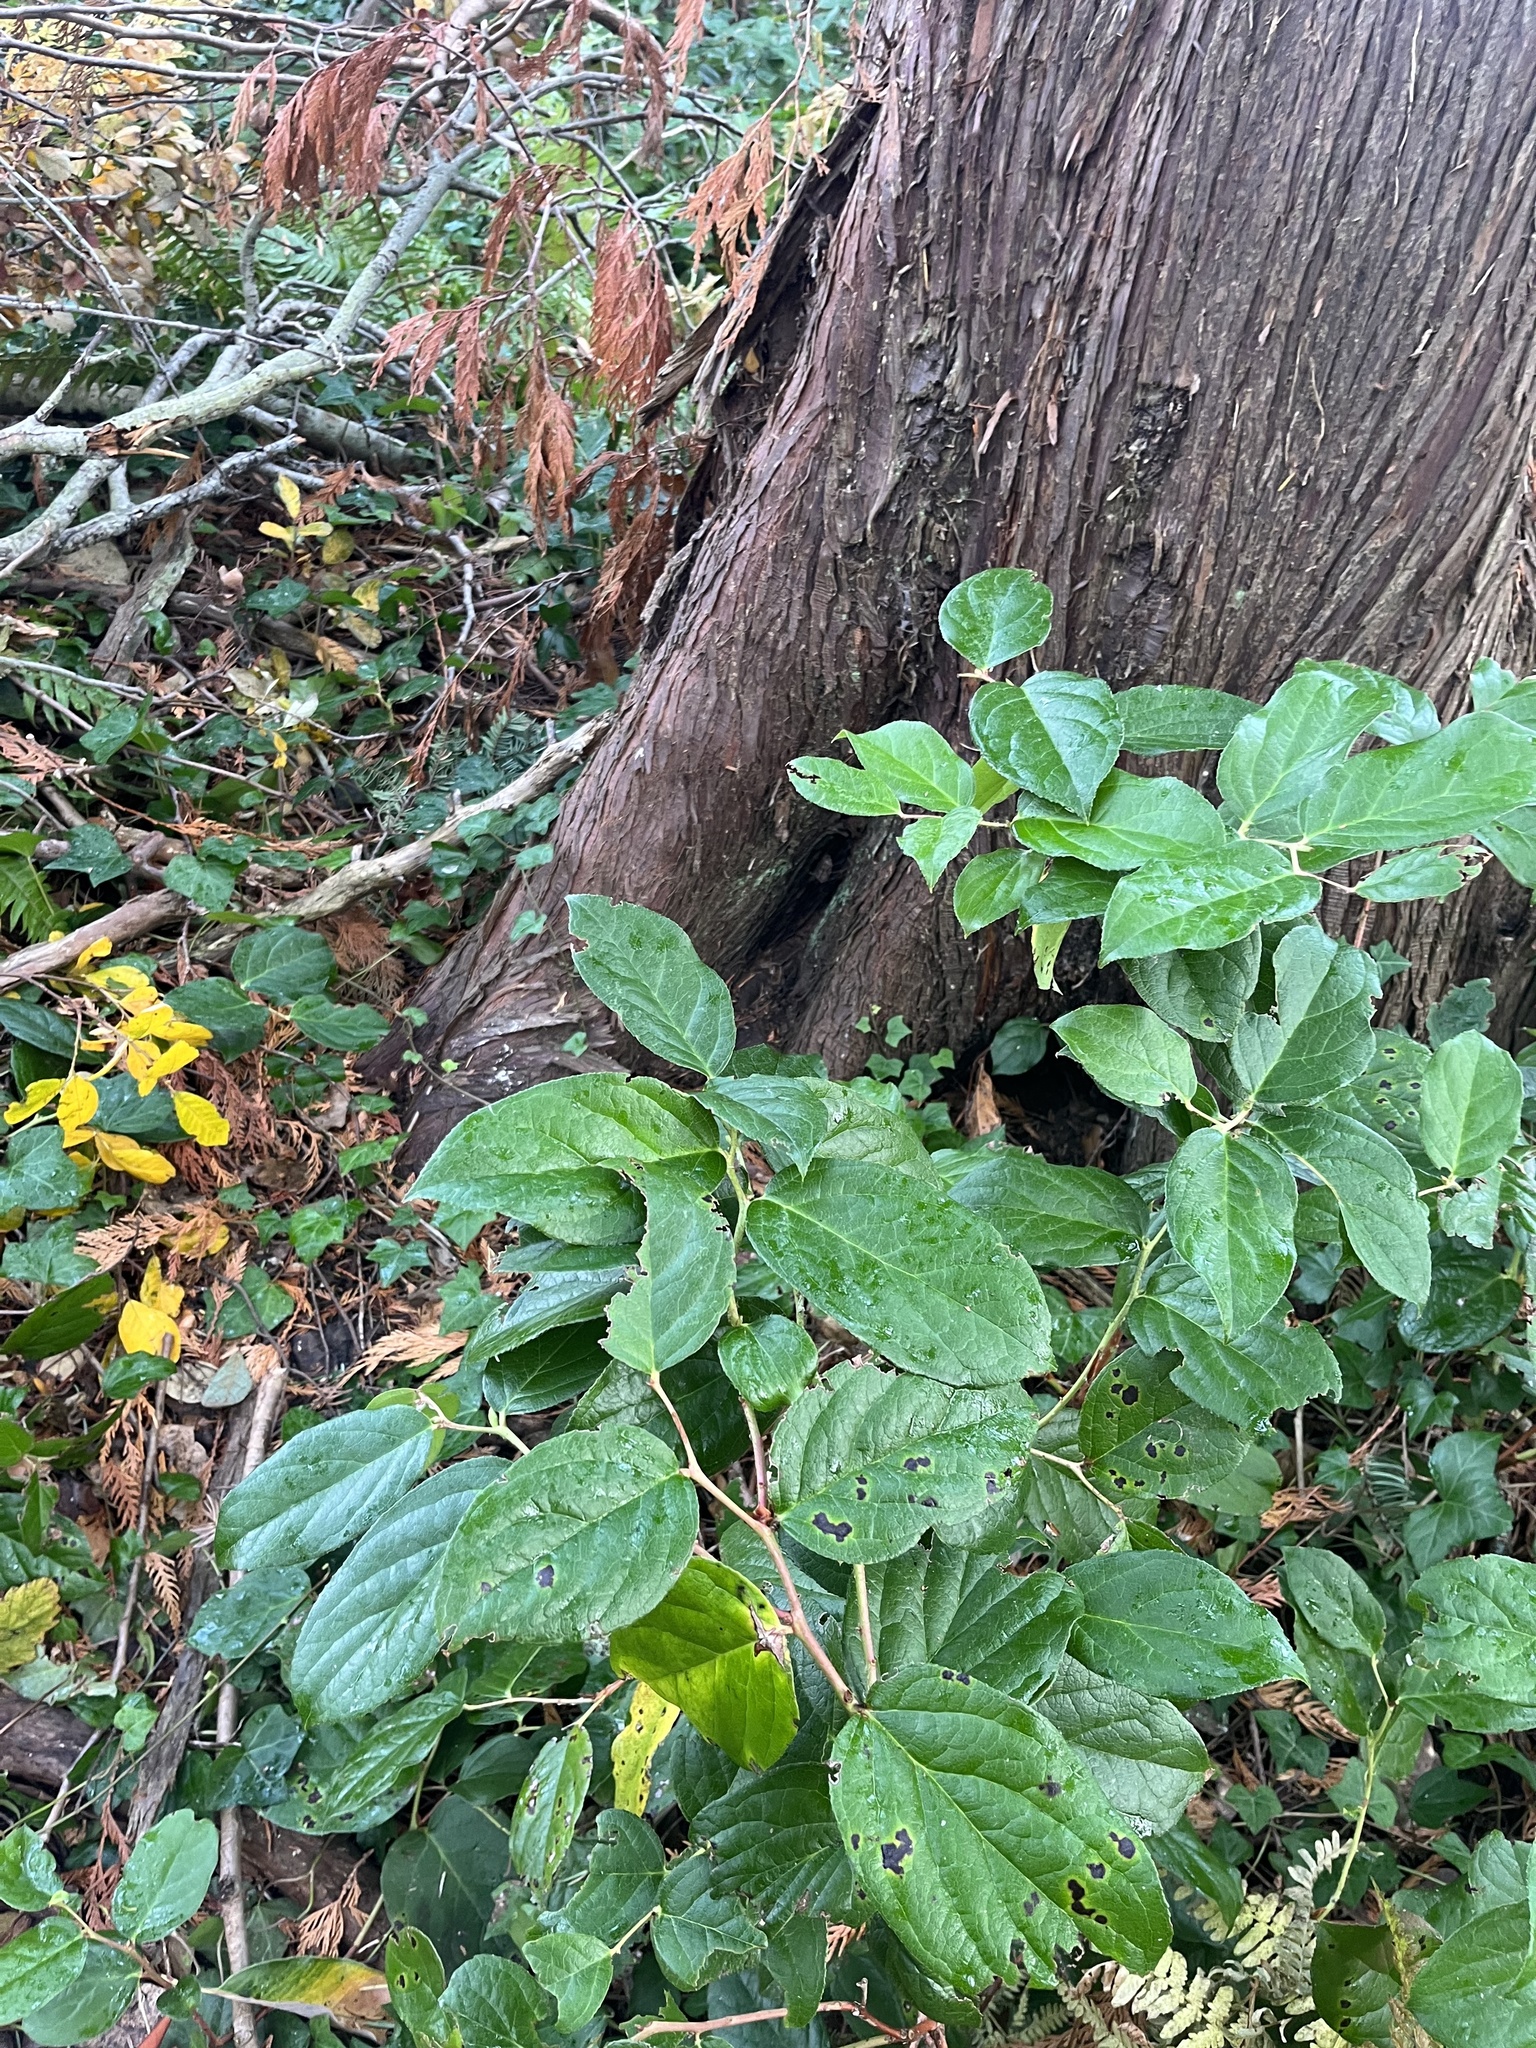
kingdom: Plantae
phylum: Tracheophyta
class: Magnoliopsida
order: Ericales
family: Ericaceae
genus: Gaultheria
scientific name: Gaultheria shallon
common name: Shallon
